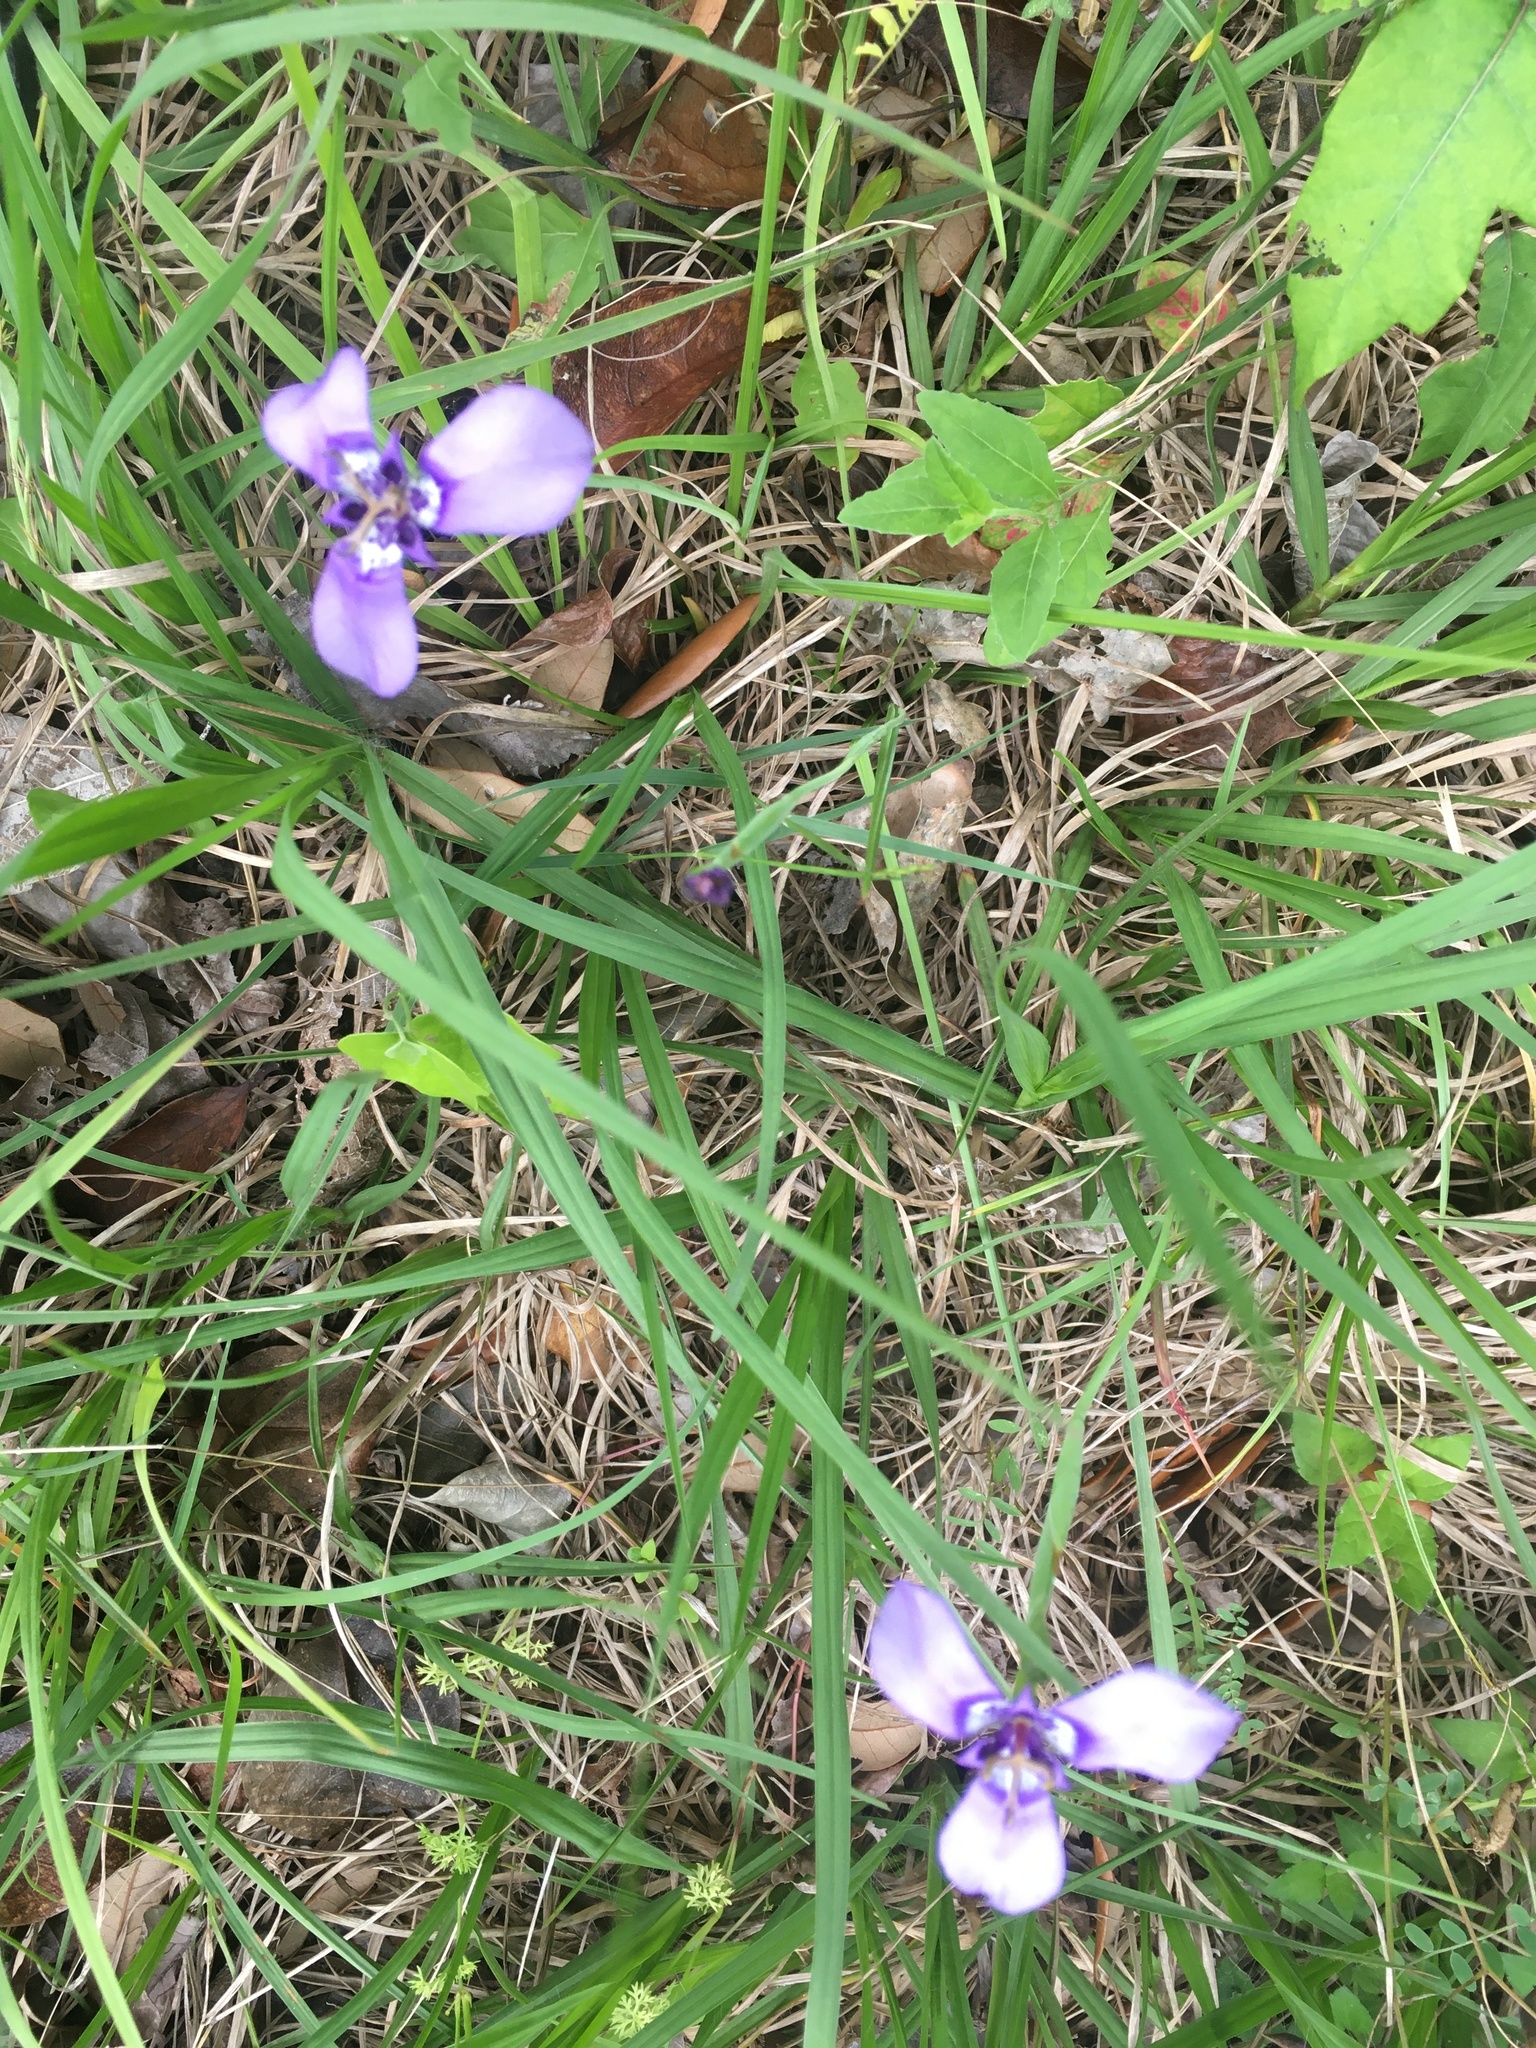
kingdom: Plantae
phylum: Tracheophyta
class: Liliopsida
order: Asparagales
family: Iridaceae
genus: Herbertia
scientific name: Herbertia lahue
